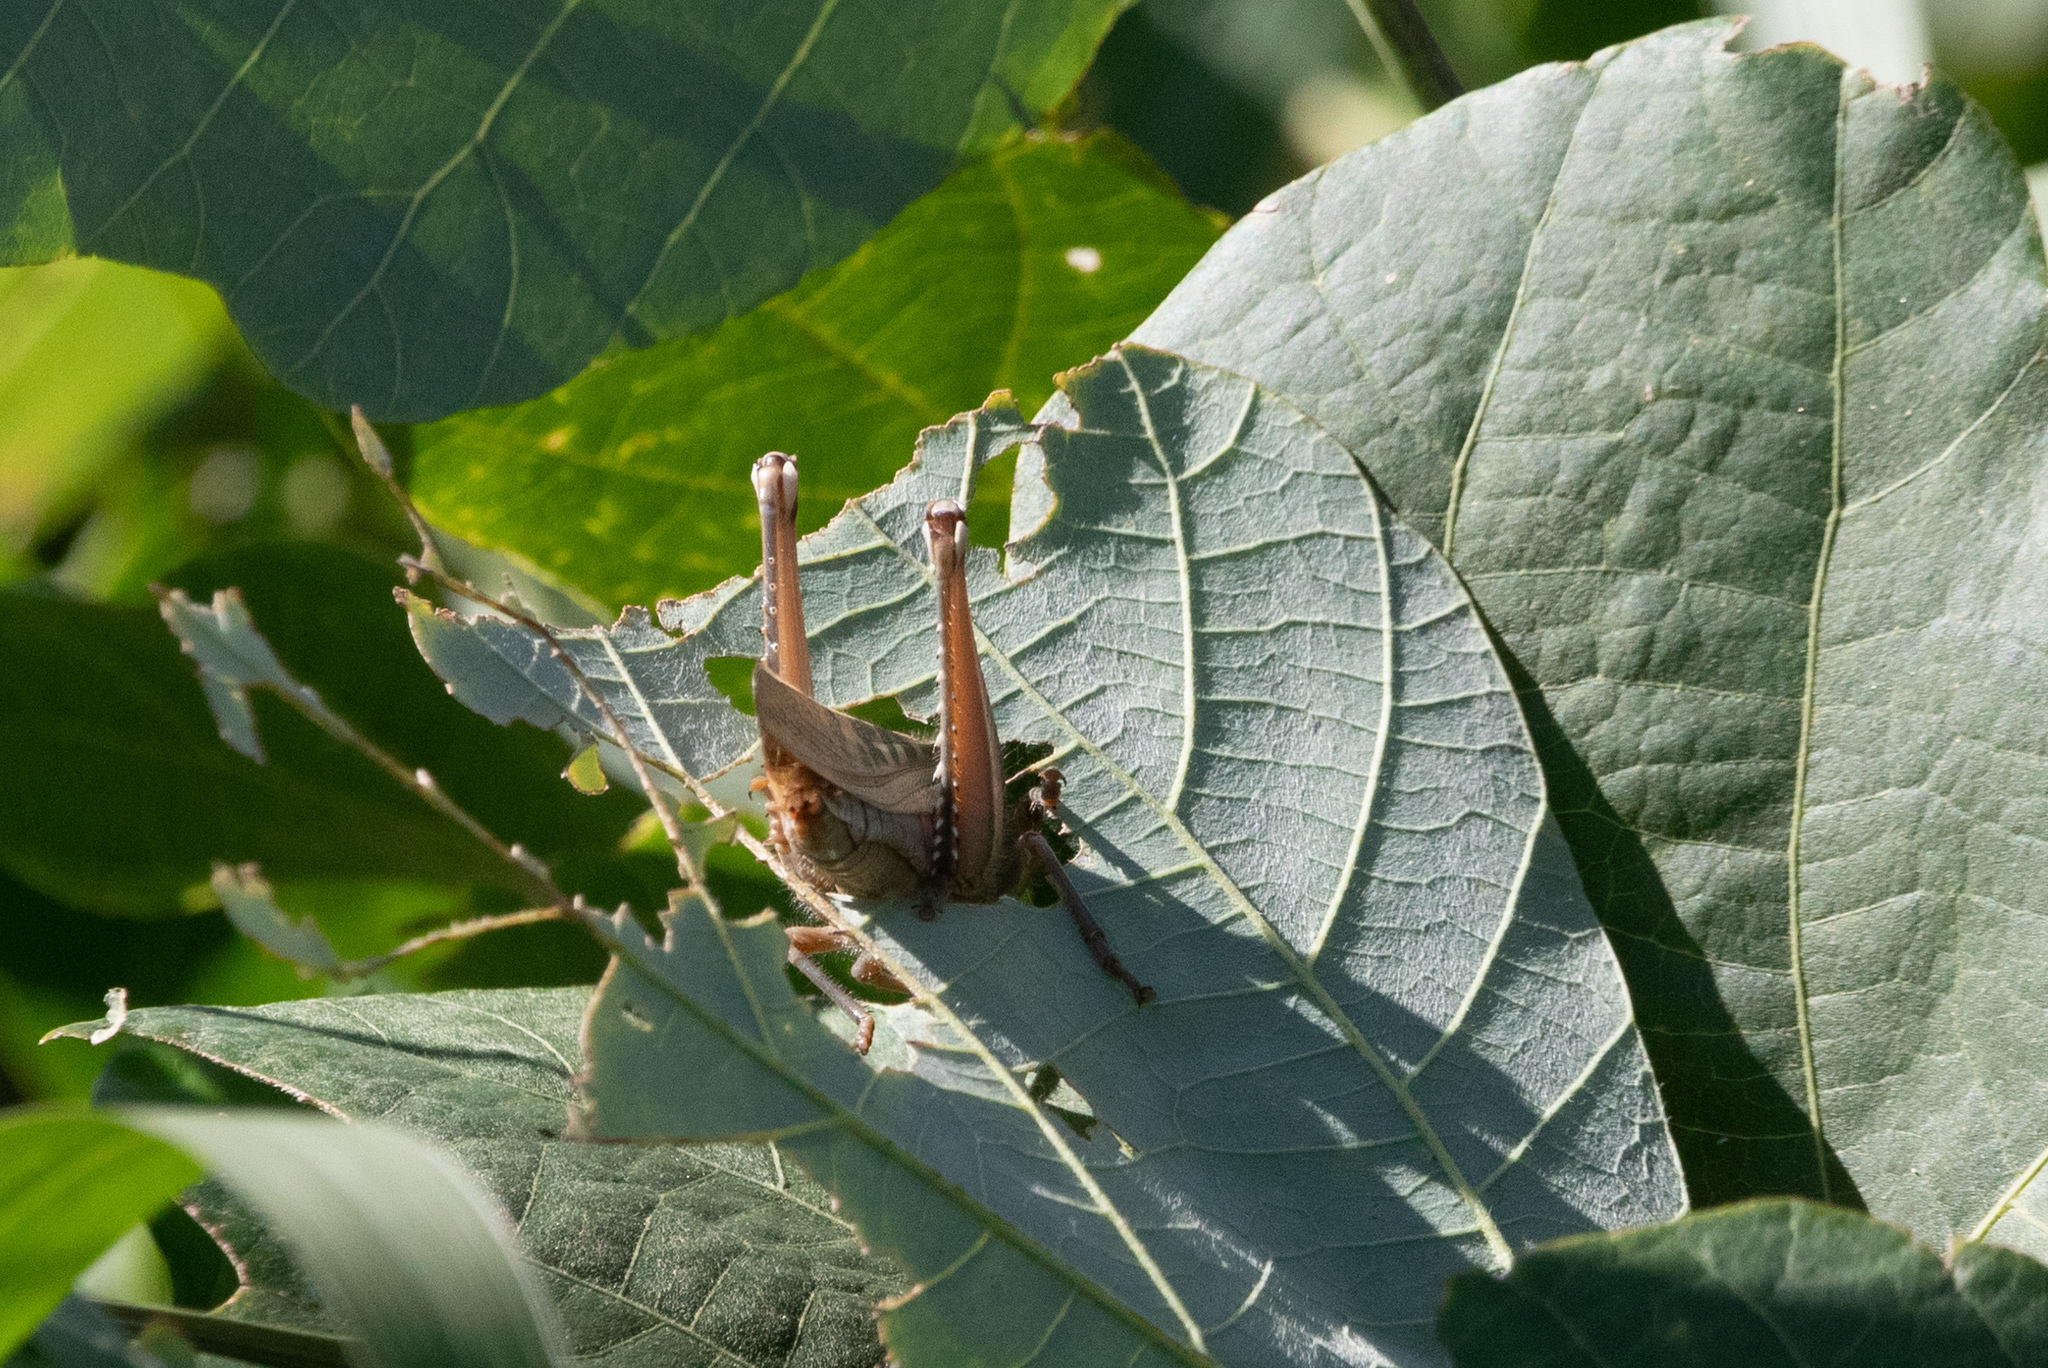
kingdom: Animalia
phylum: Arthropoda
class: Insecta
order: Orthoptera
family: Acrididae
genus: Patanga
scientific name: Patanga japonica
